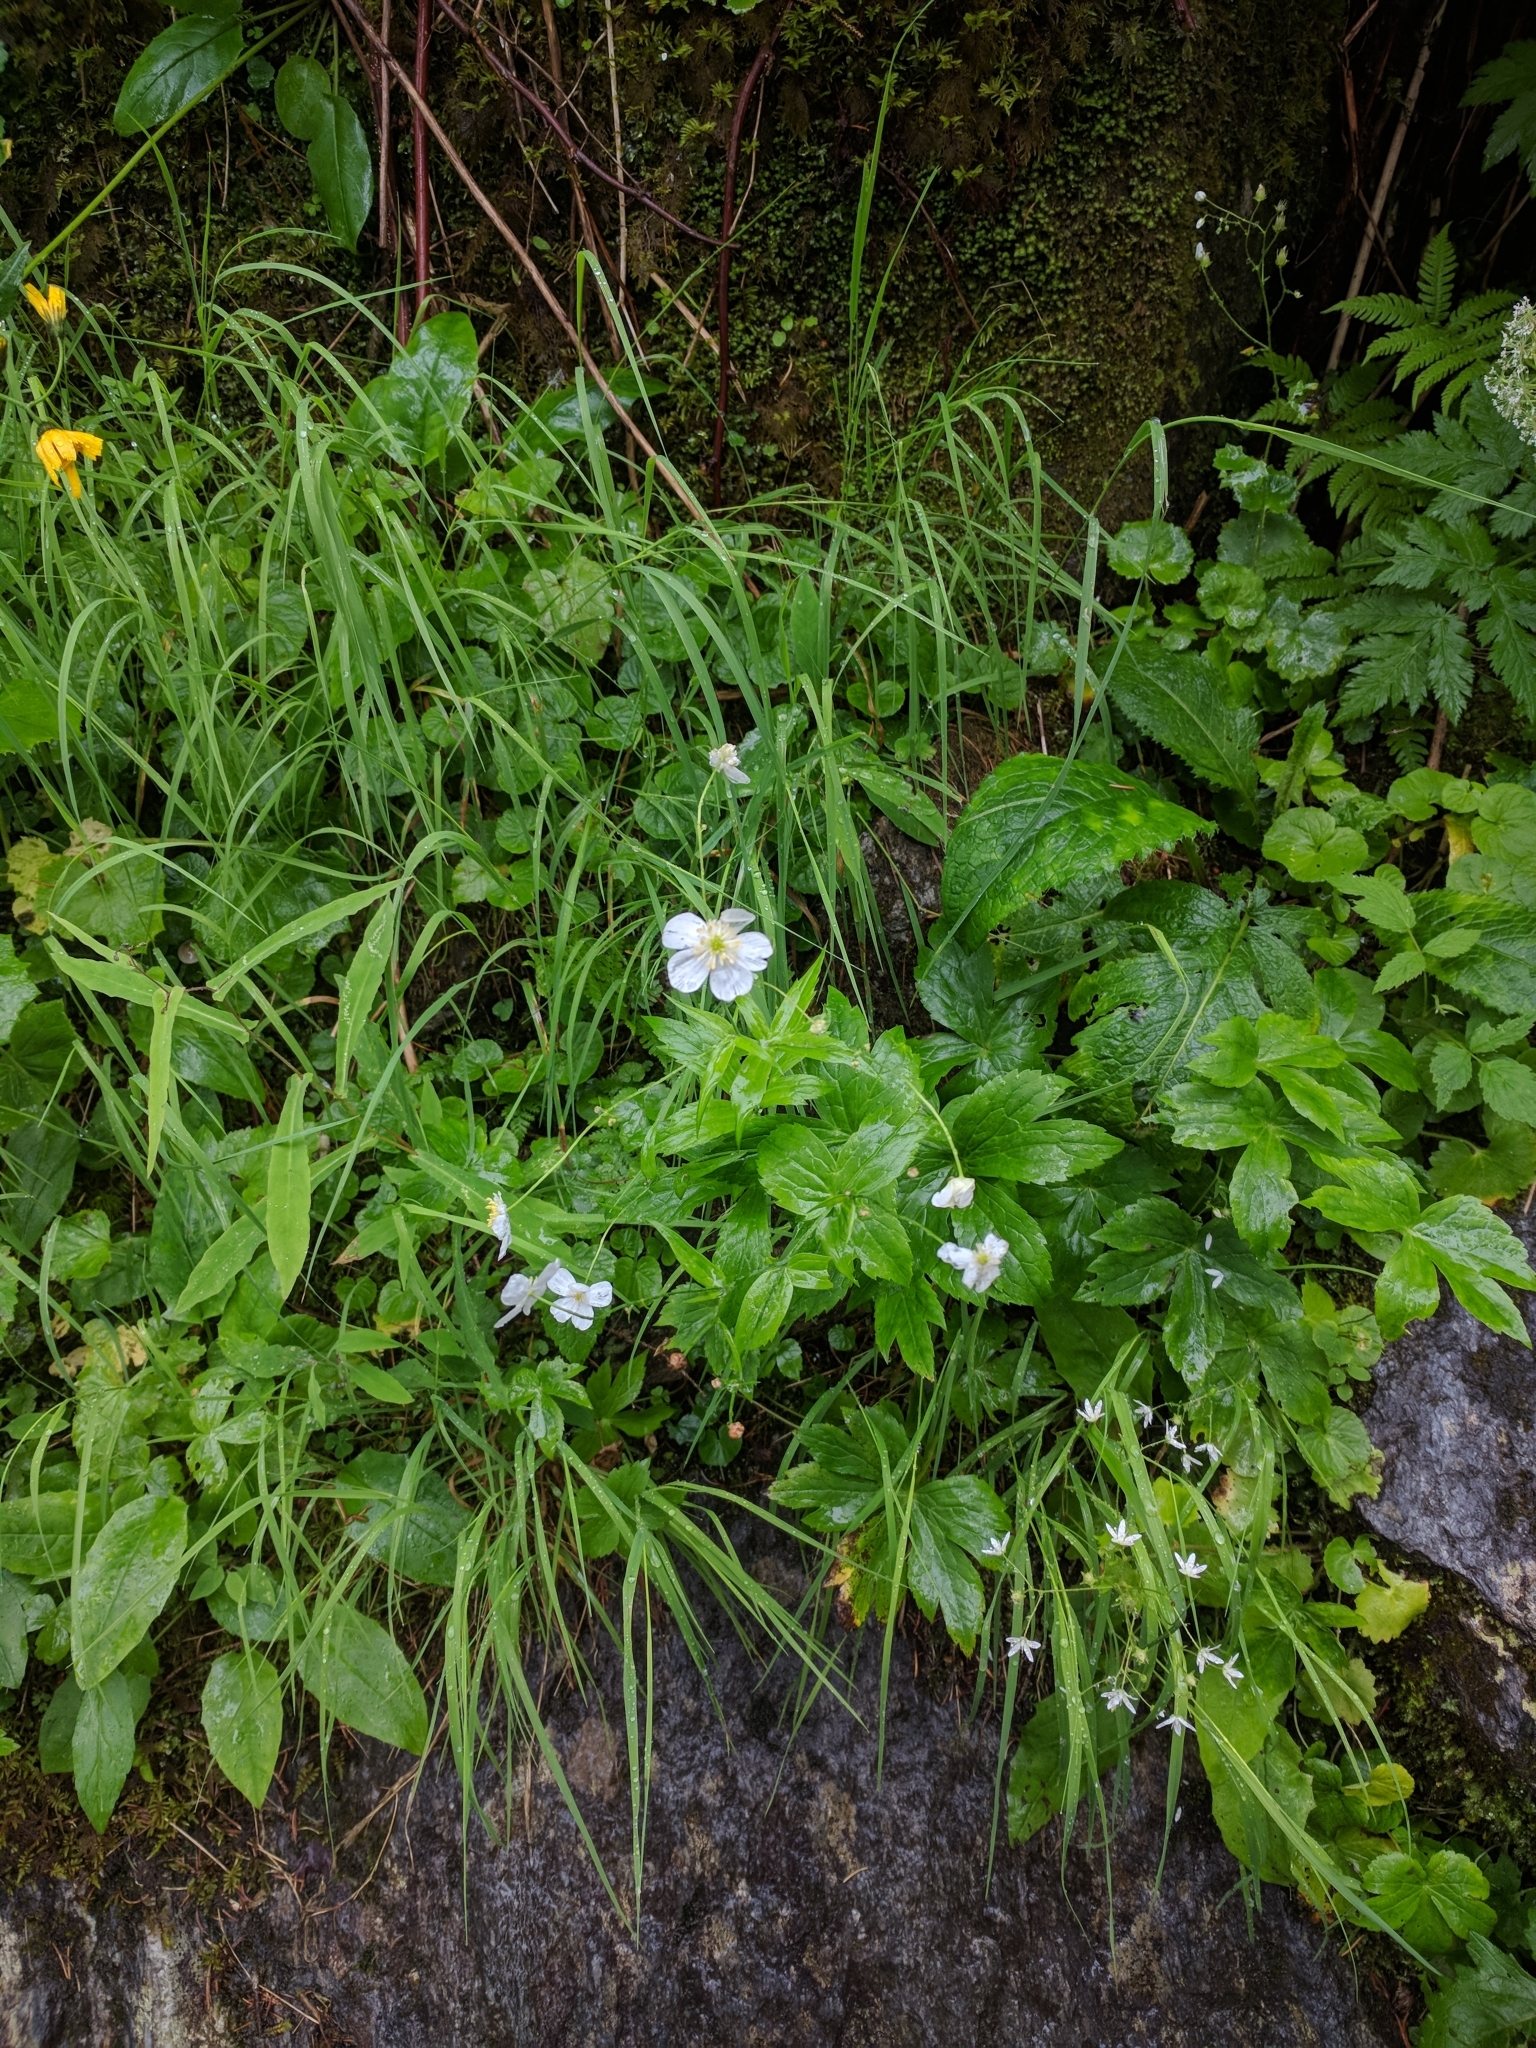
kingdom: Plantae
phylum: Tracheophyta
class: Magnoliopsida
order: Ranunculales
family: Ranunculaceae
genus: Ranunculus
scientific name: Ranunculus platanifolius
